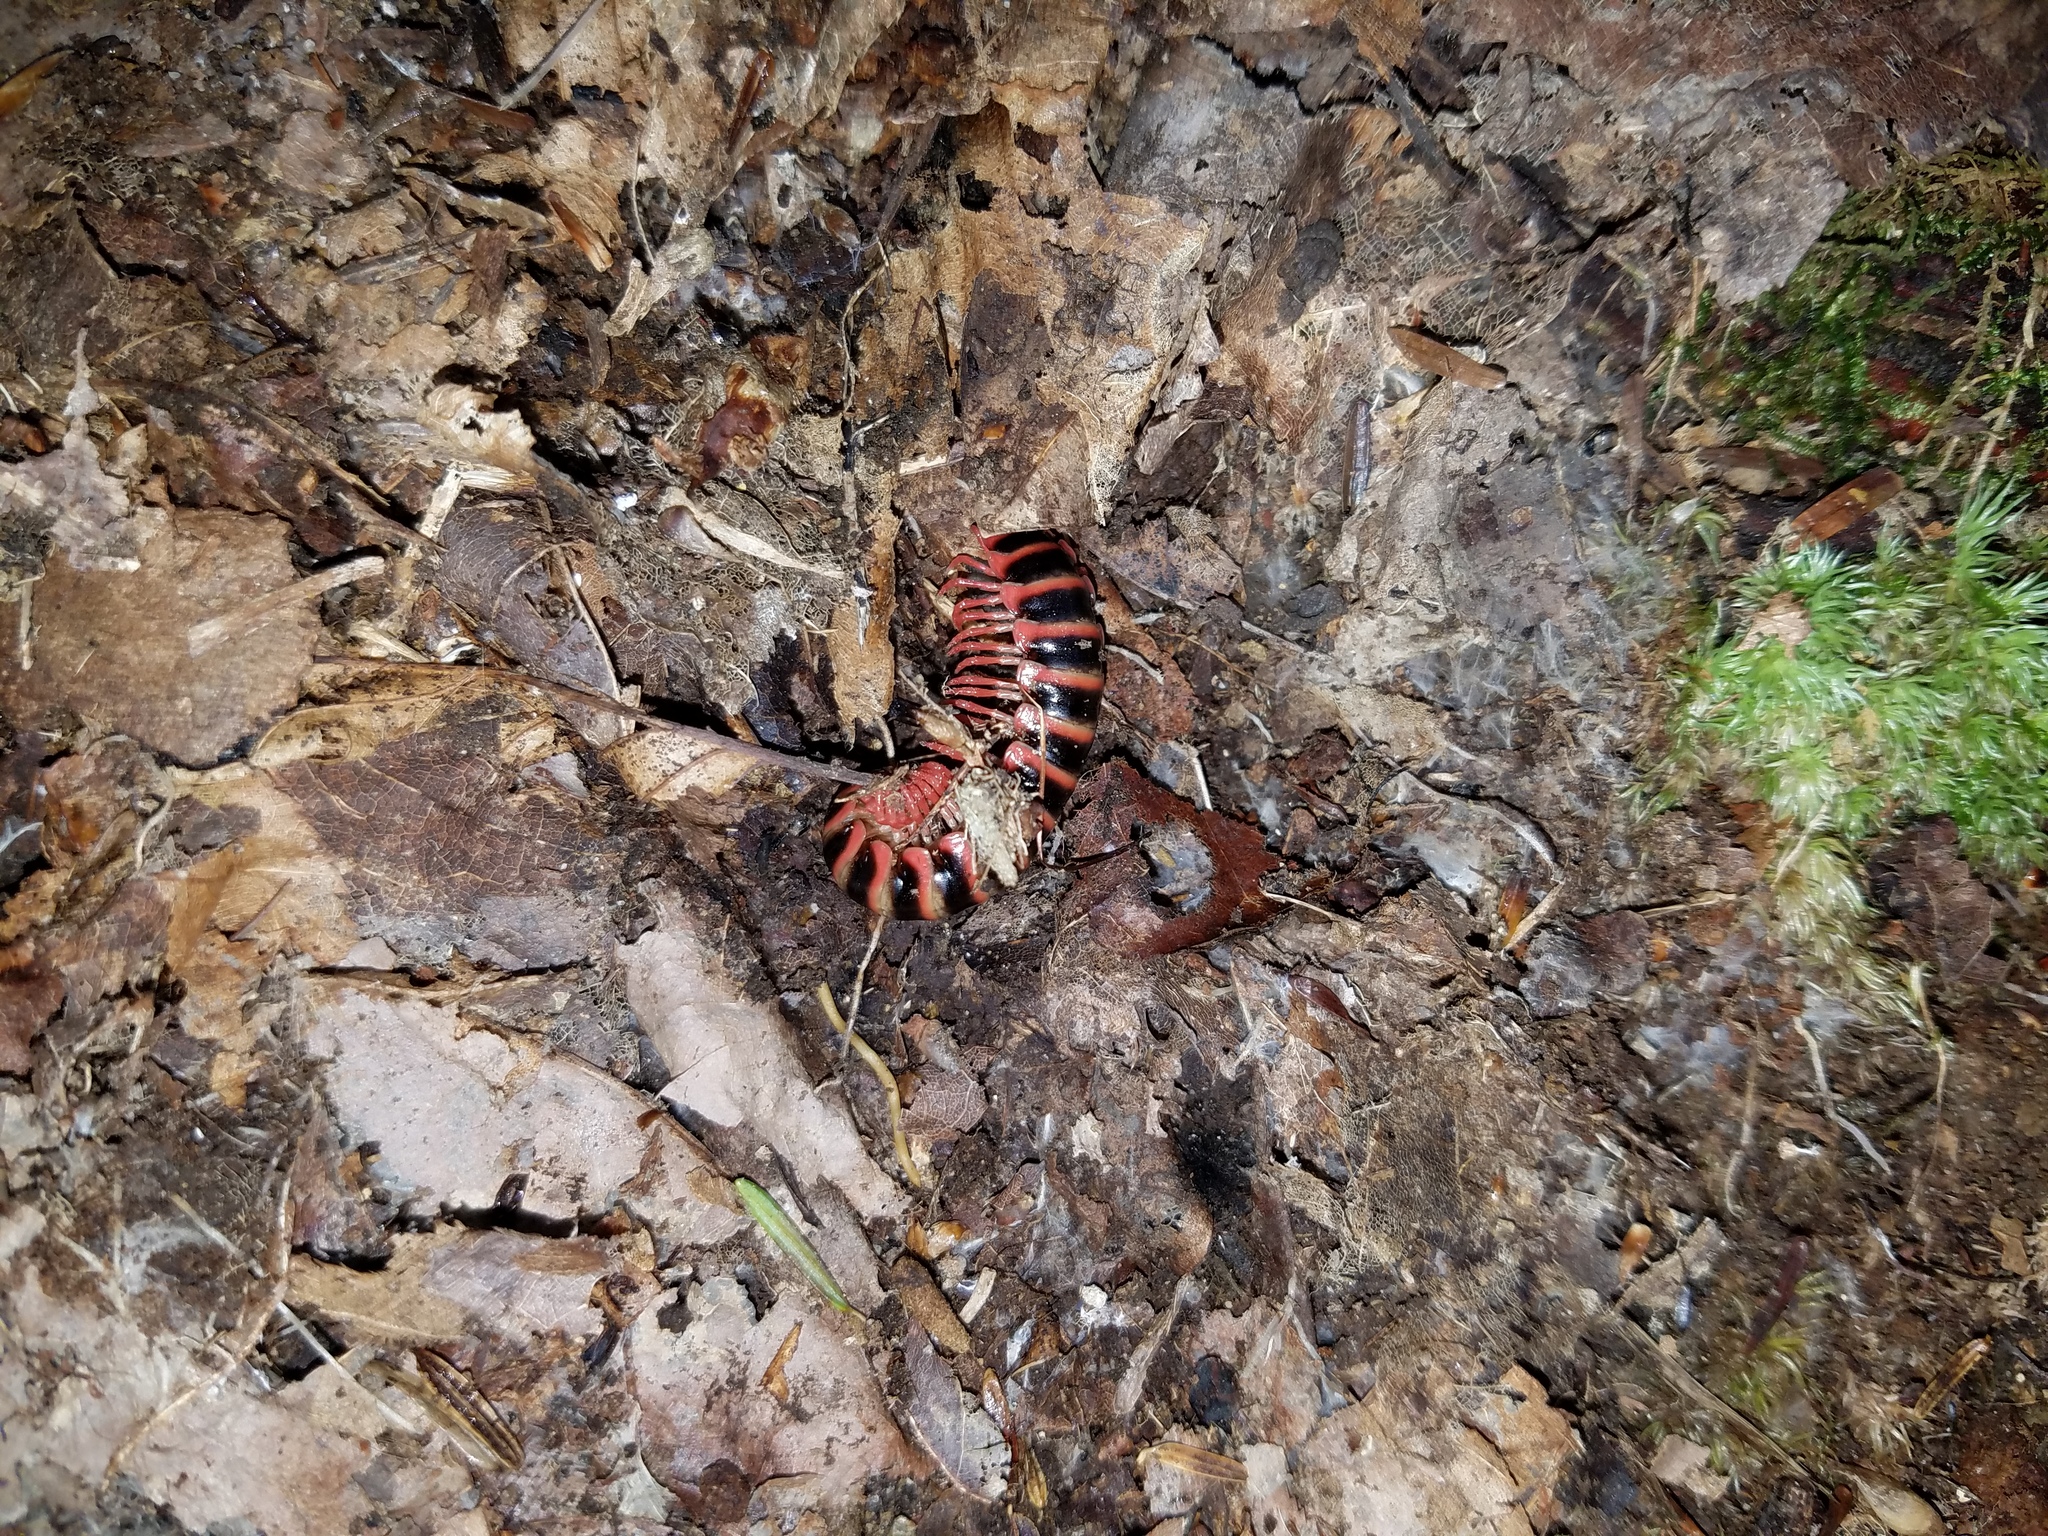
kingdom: Animalia
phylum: Arthropoda
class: Diplopoda
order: Polydesmida
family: Xystodesmidae
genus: Sigmoria
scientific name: Sigmoria nigrimontis
